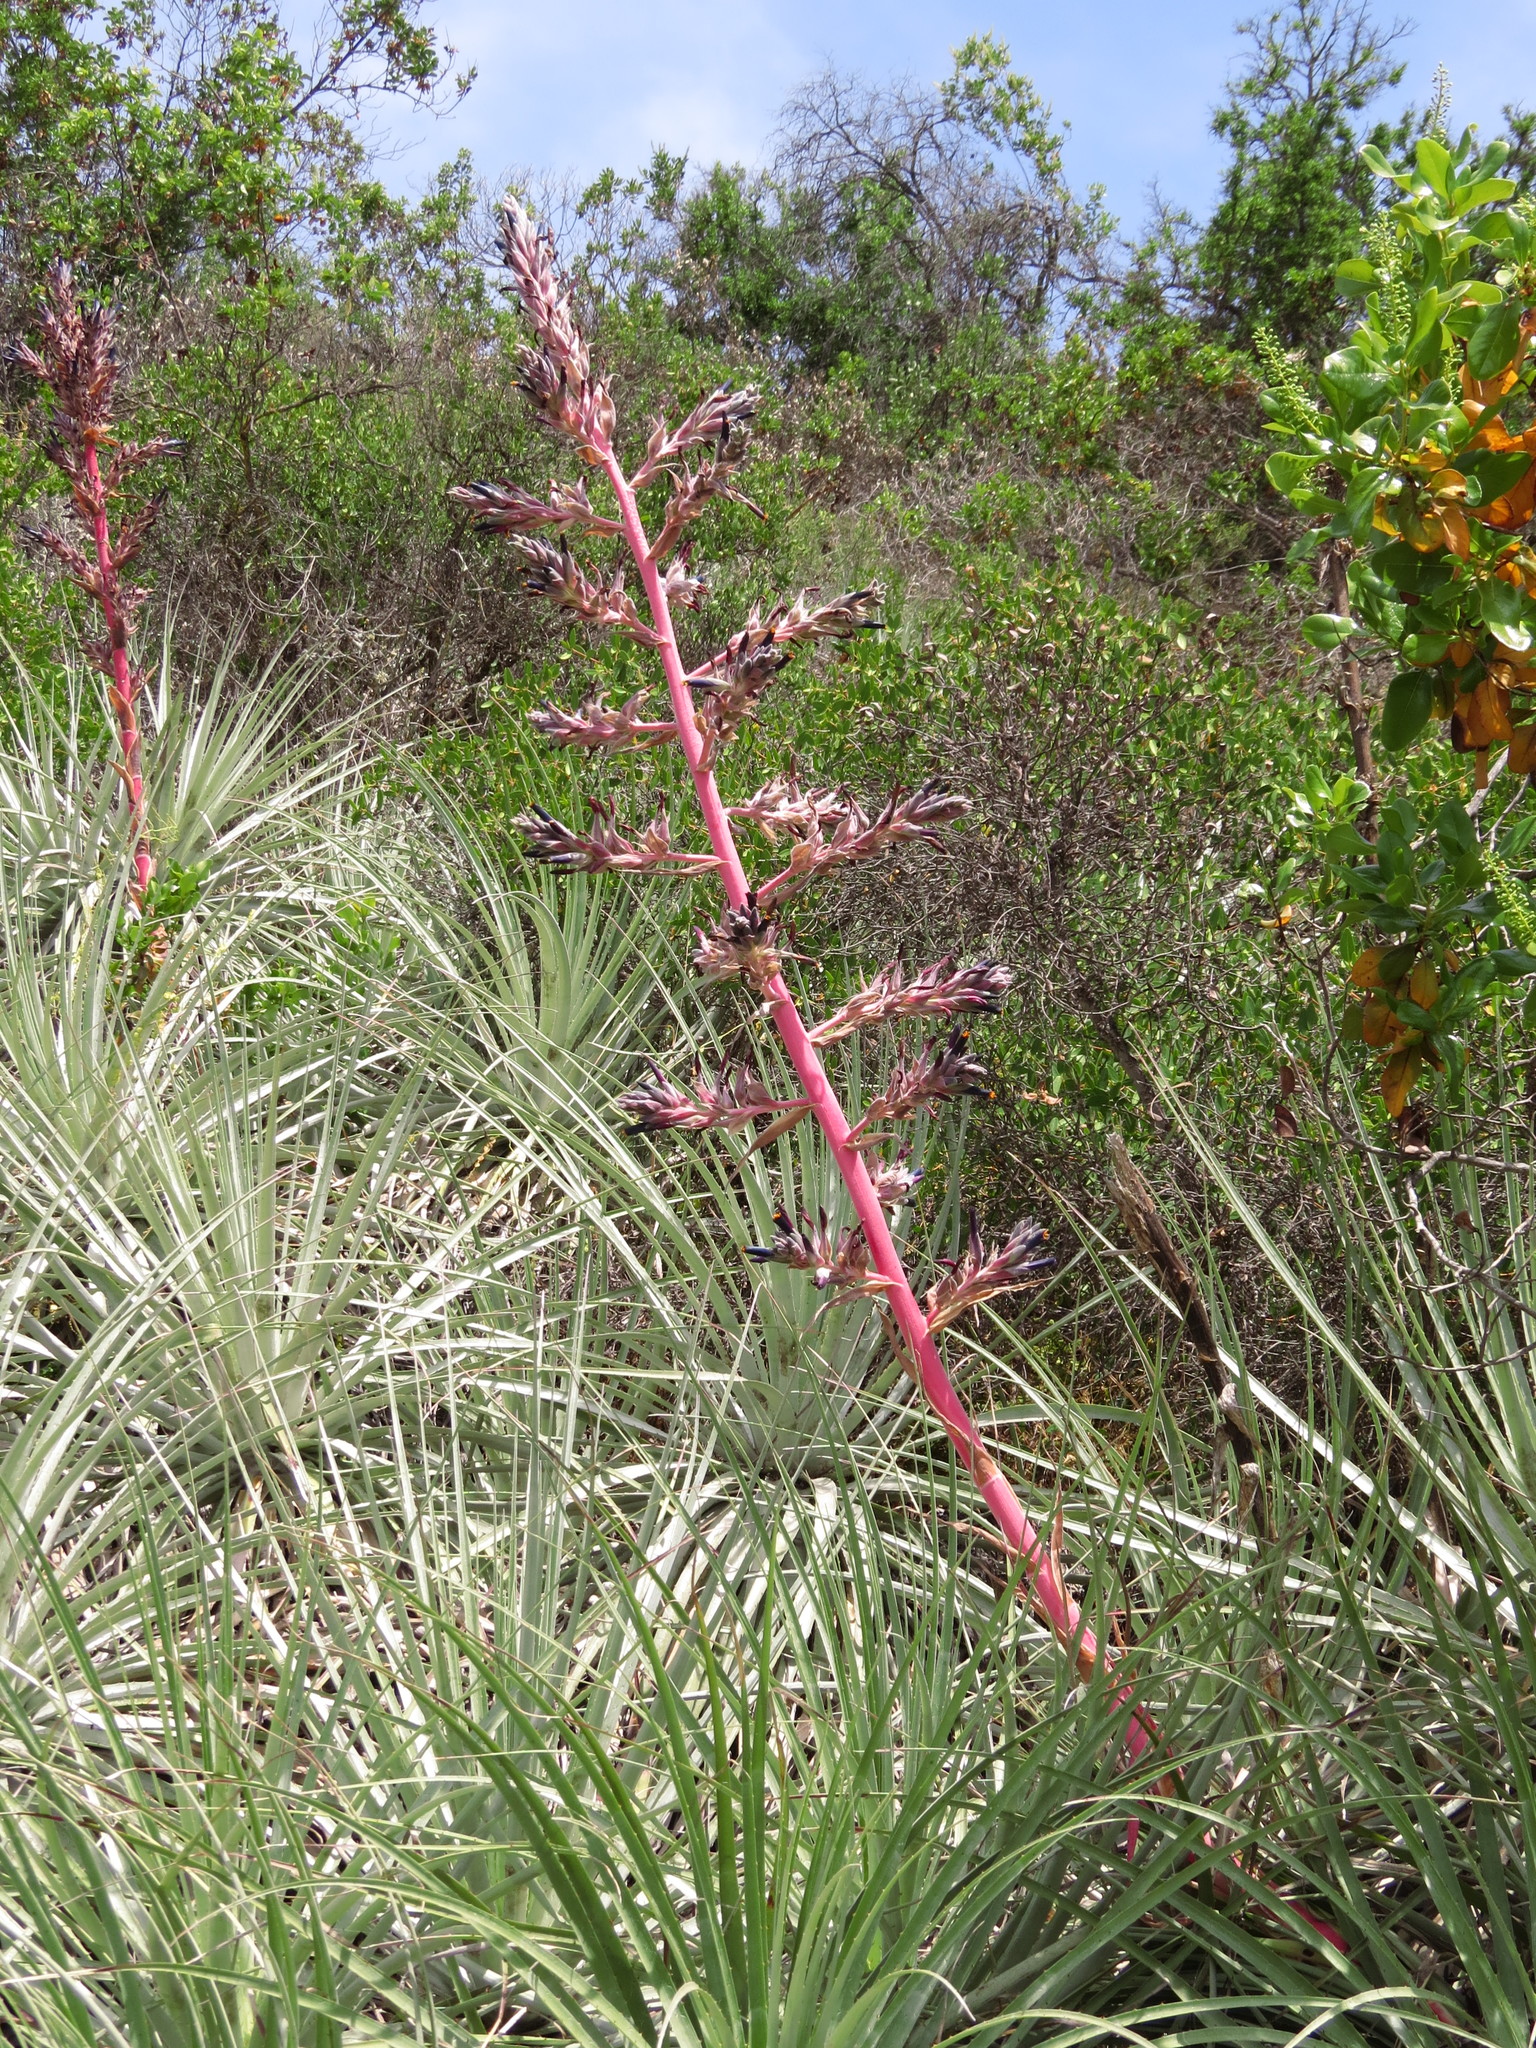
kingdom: Plantae
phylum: Tracheophyta
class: Liliopsida
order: Poales
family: Bromeliaceae
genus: Puya
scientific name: Puya coerulea
